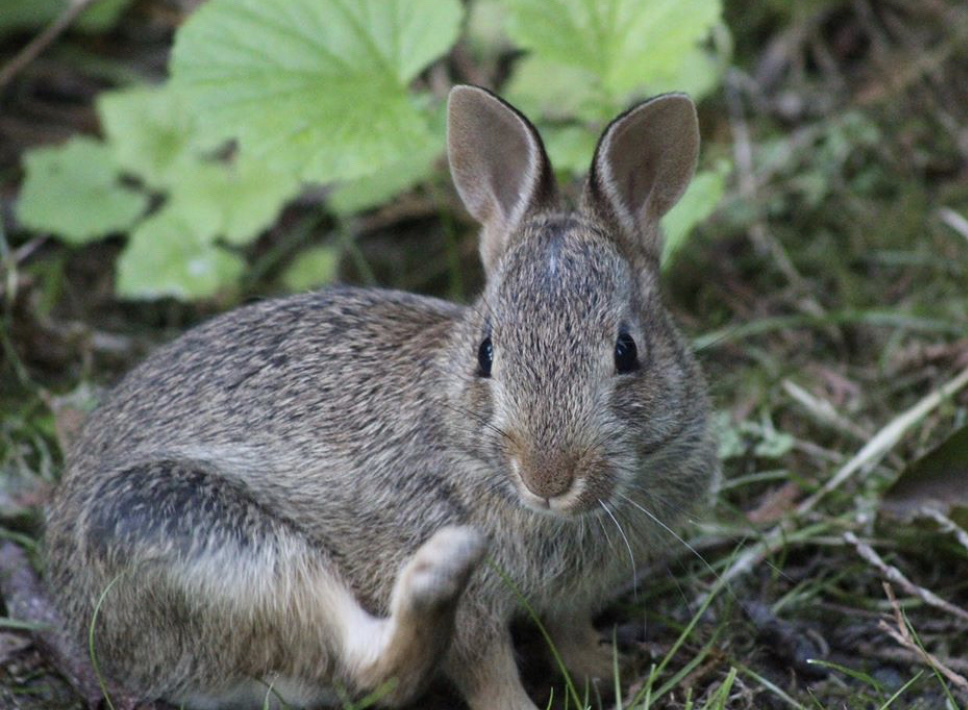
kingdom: Animalia
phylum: Chordata
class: Mammalia
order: Lagomorpha
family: Leporidae
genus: Sylvilagus
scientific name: Sylvilagus floridanus
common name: Eastern cottontail
